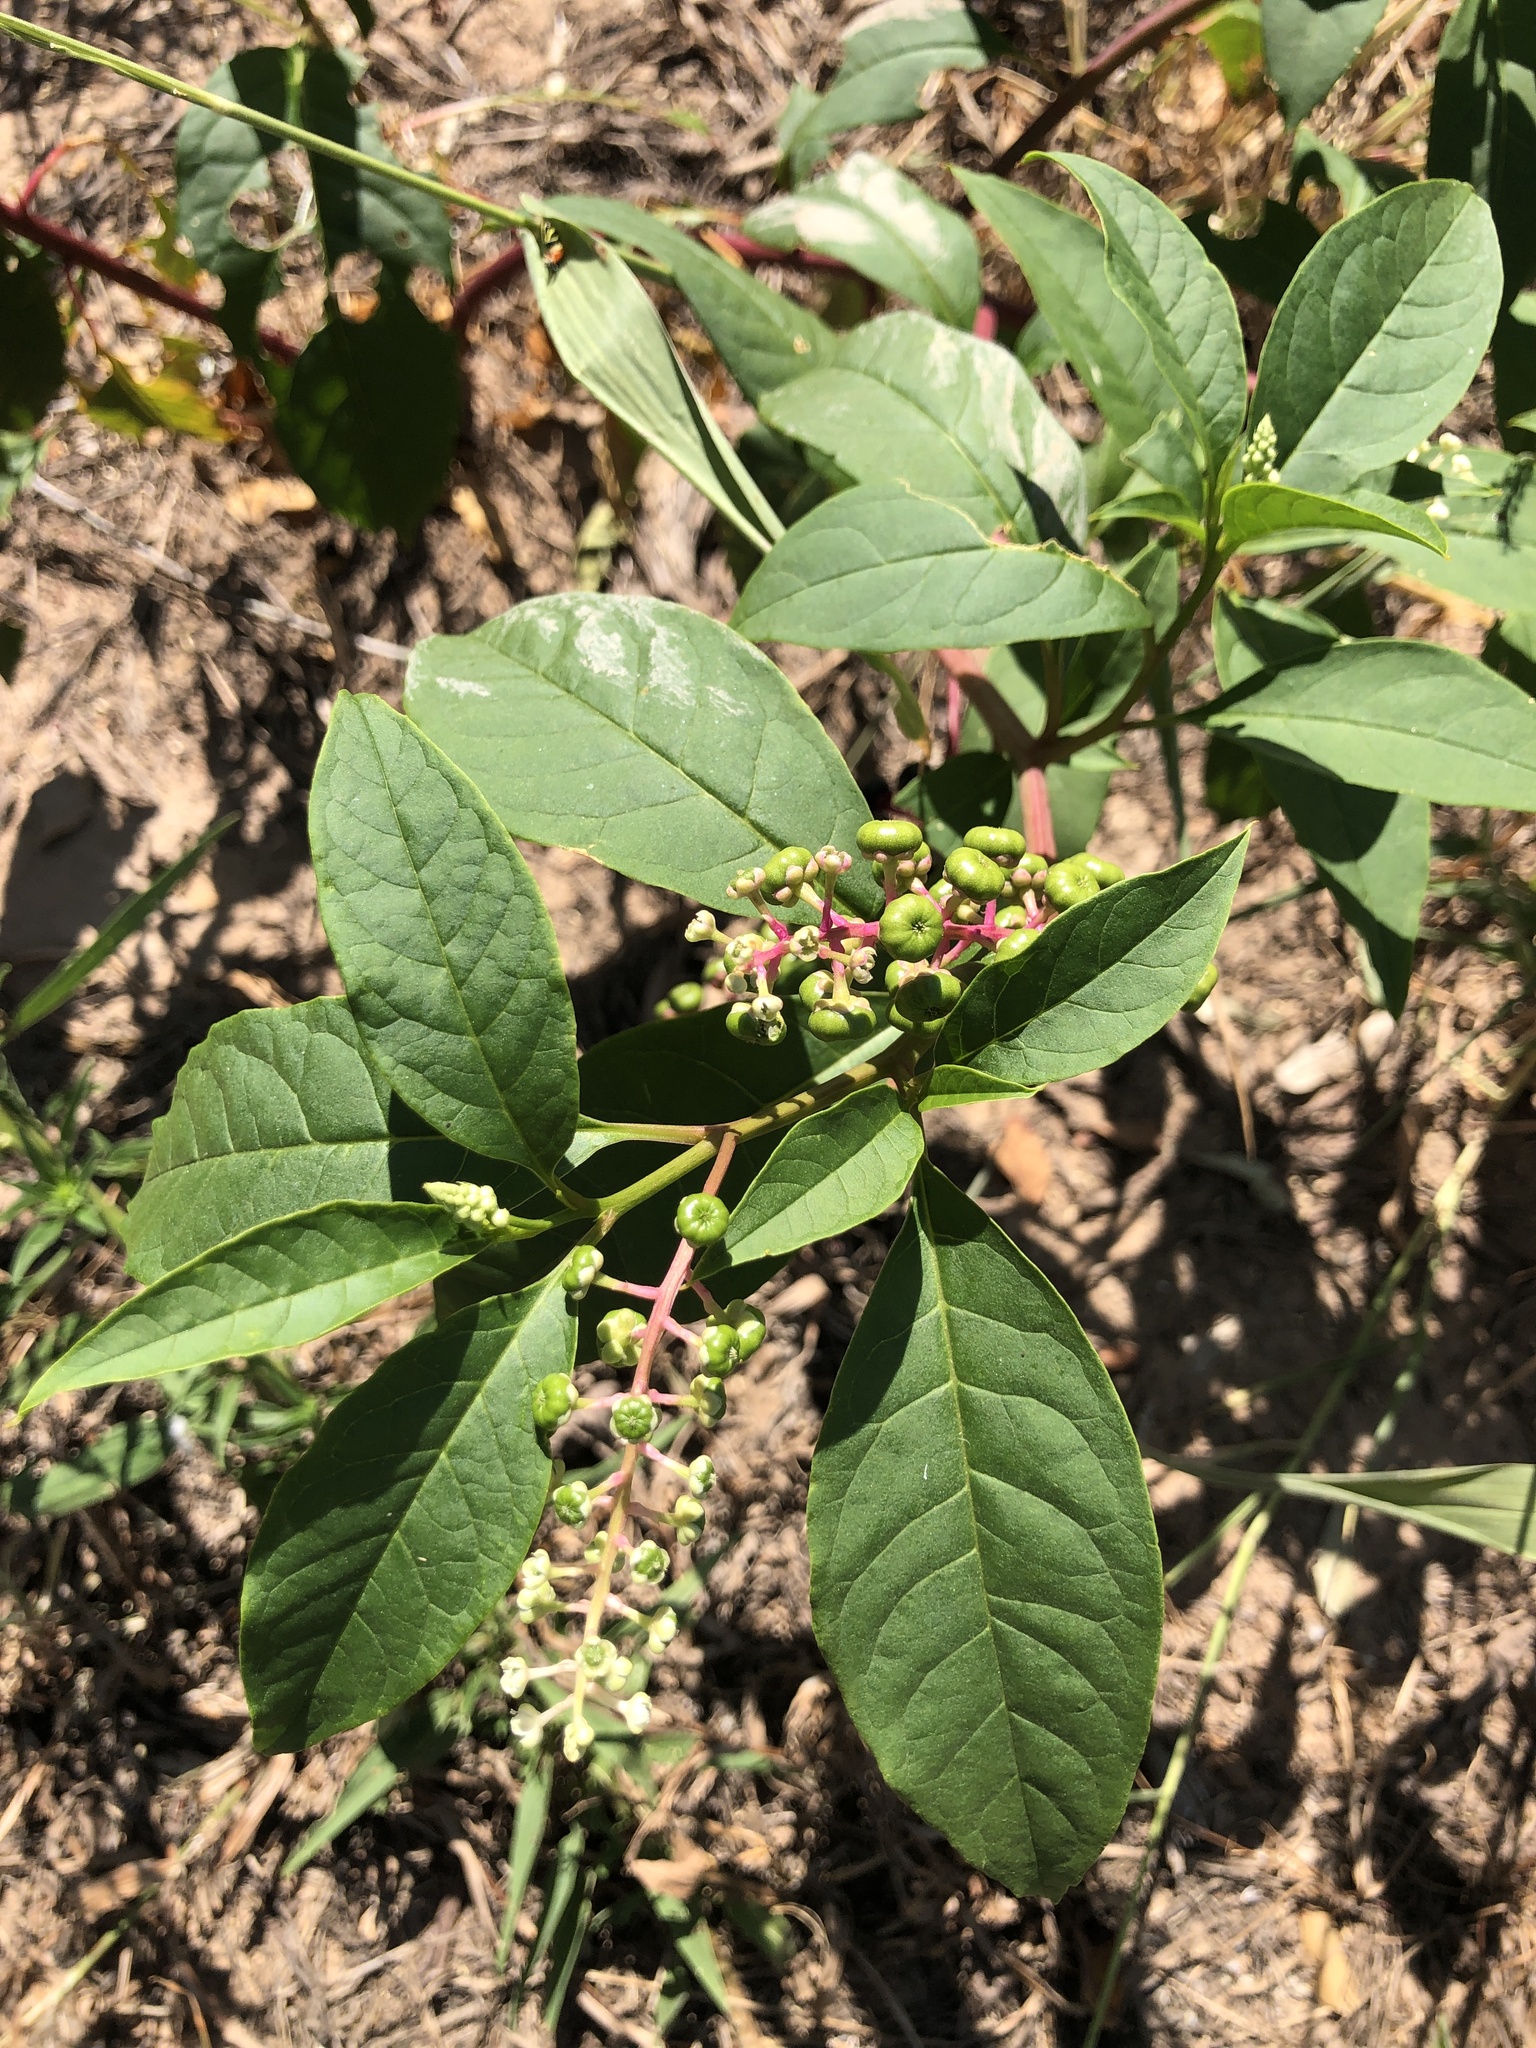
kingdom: Plantae
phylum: Tracheophyta
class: Magnoliopsida
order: Caryophyllales
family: Phytolaccaceae
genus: Phytolacca
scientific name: Phytolacca americana
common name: American pokeweed
